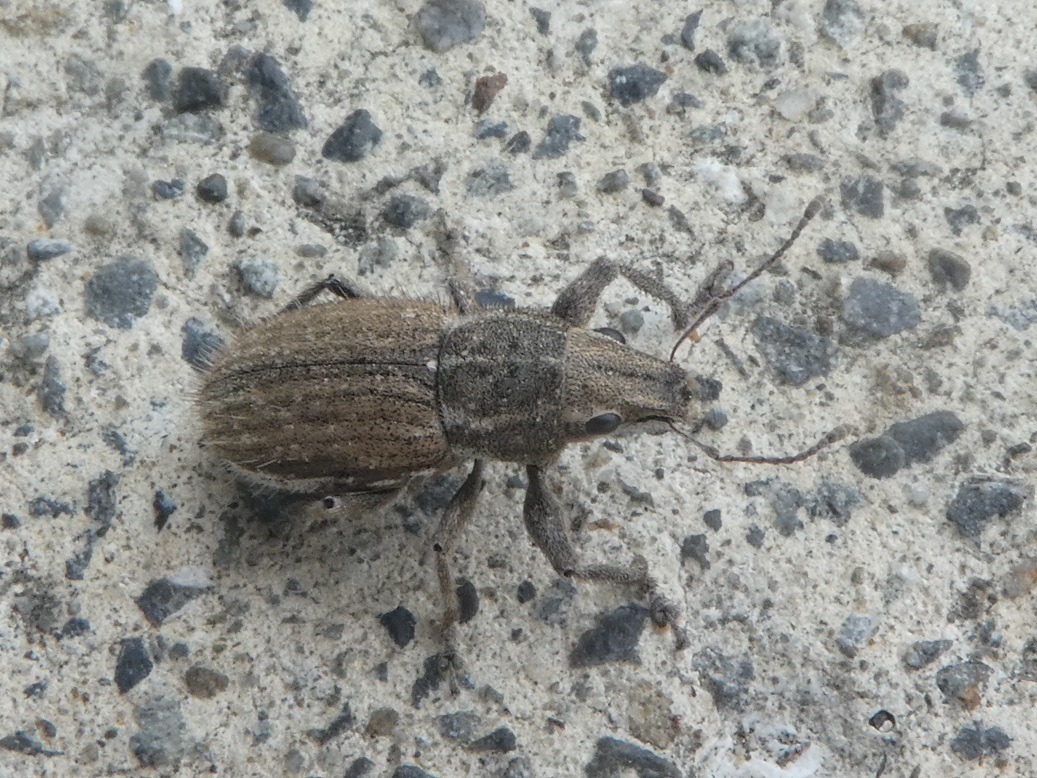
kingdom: Animalia
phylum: Arthropoda
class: Insecta
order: Coleoptera
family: Curculionidae
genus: Naupactus
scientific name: Naupactus leucoloma
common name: Whitefringed beetle
